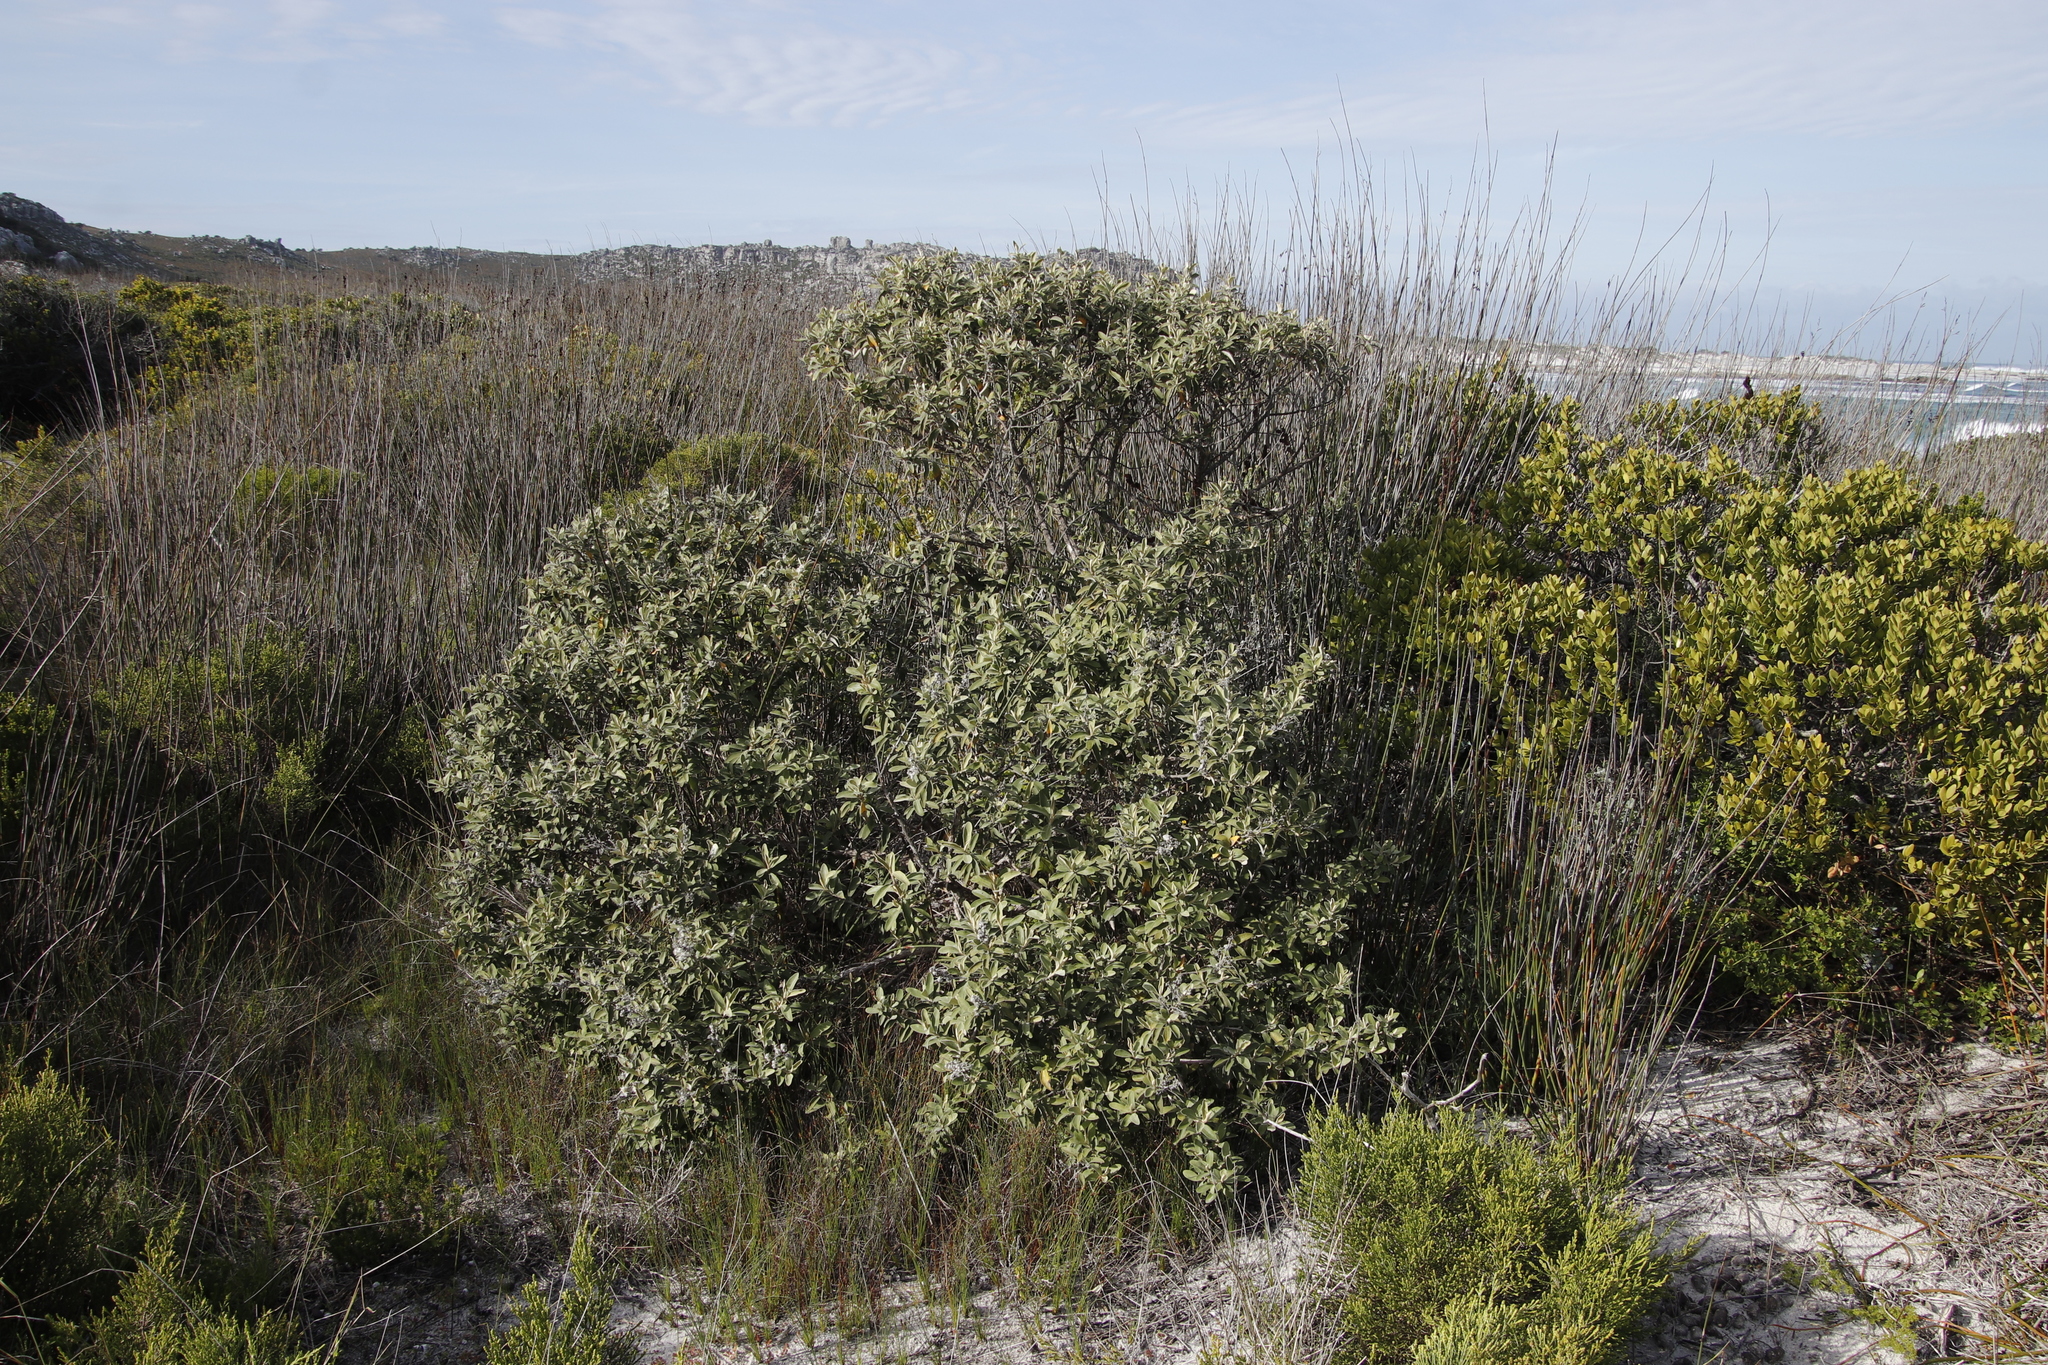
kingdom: Plantae
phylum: Tracheophyta
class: Magnoliopsida
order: Asterales
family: Asteraceae
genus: Tarchonanthus
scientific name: Tarchonanthus littoralis
